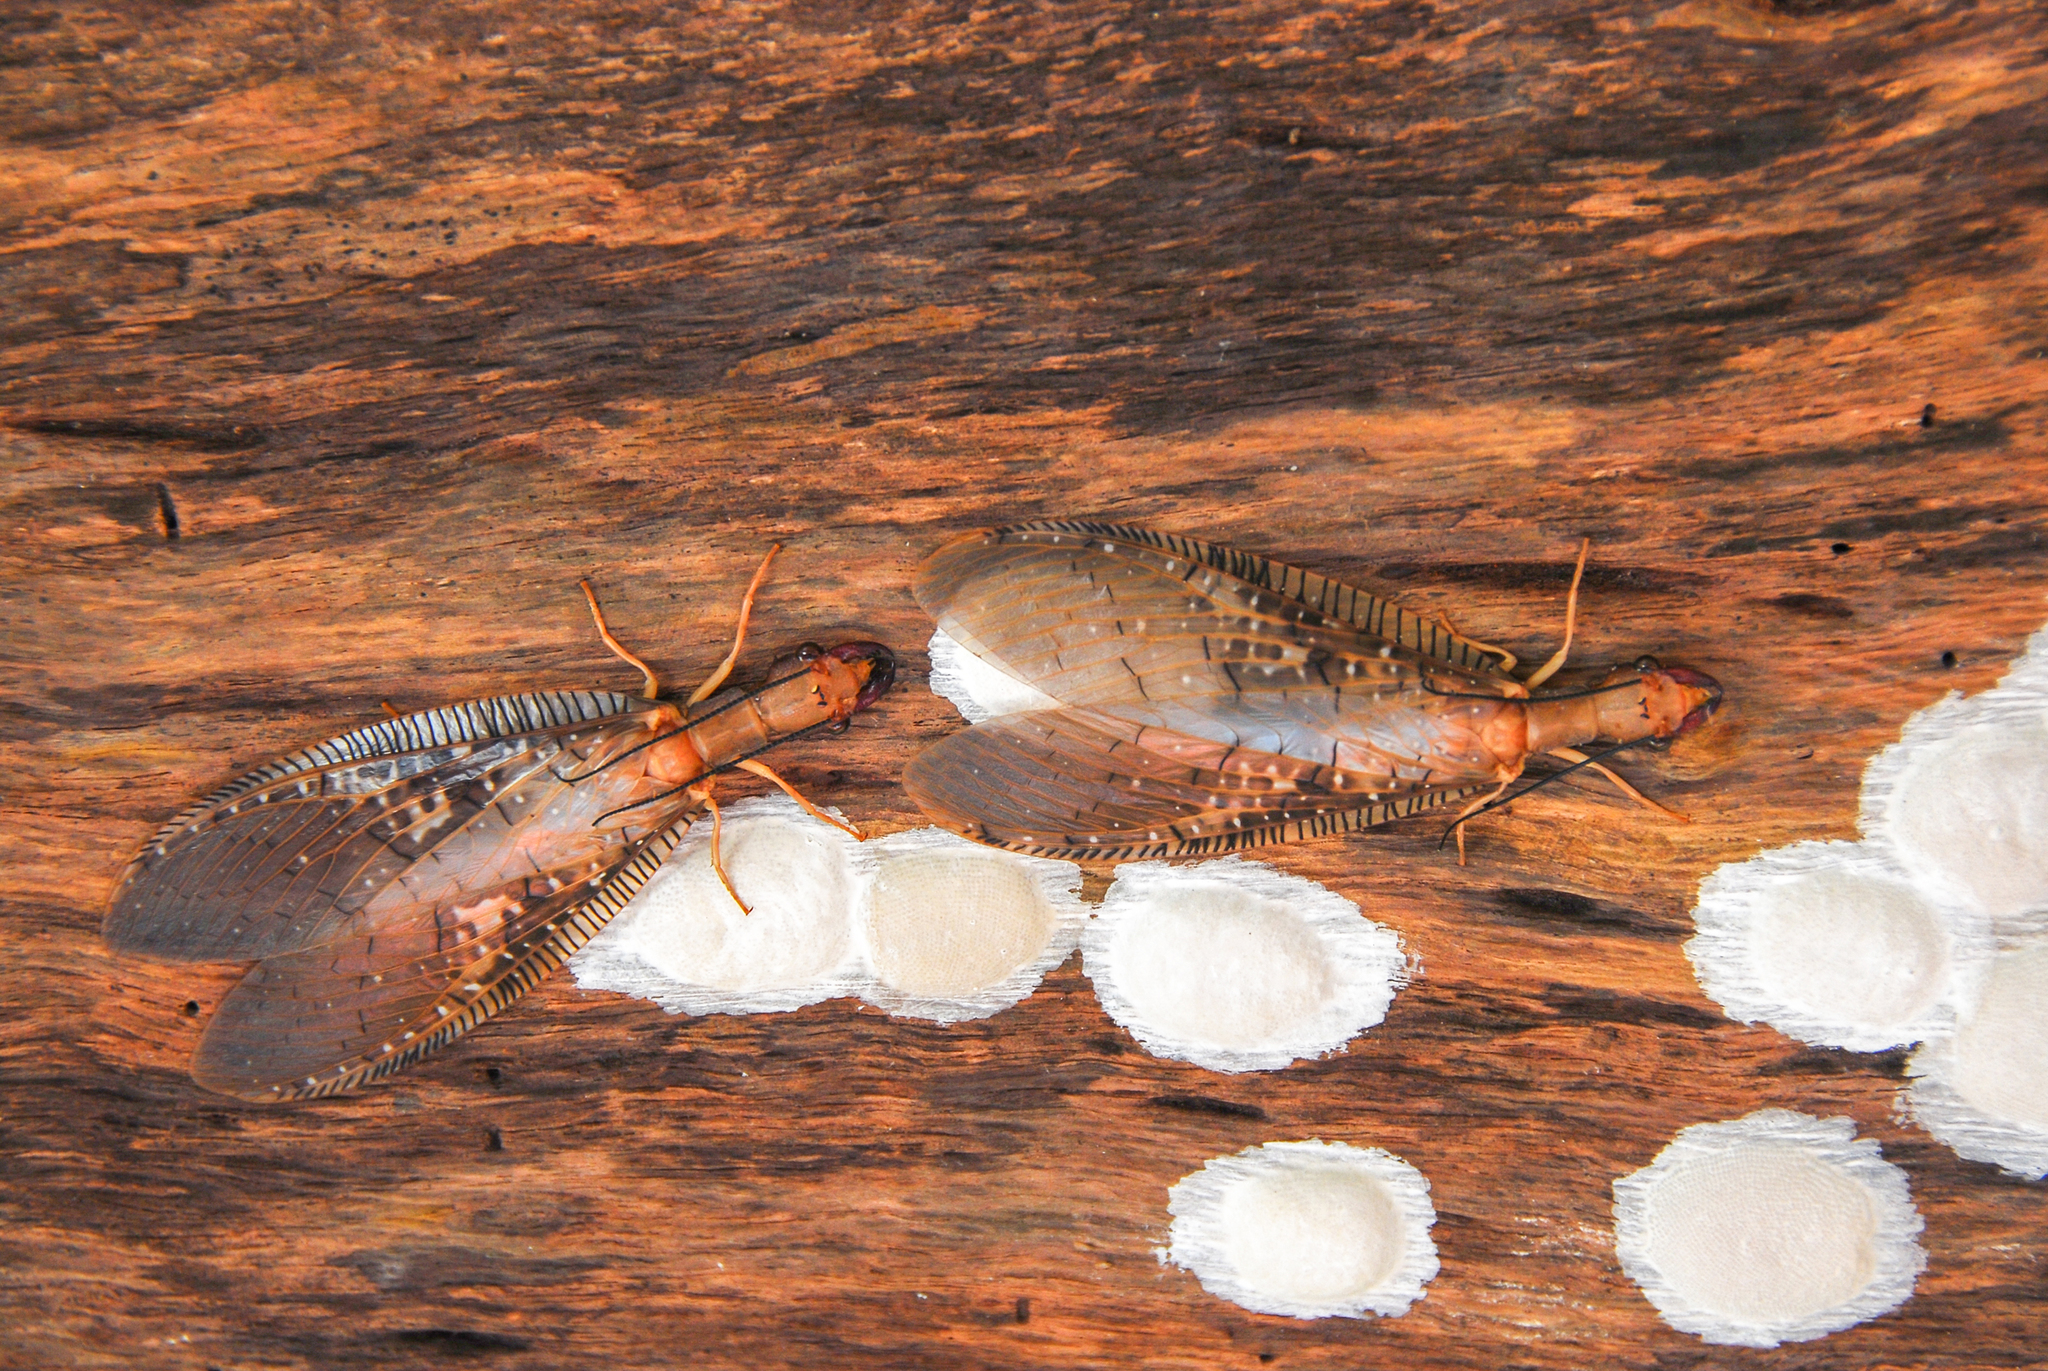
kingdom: Animalia
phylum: Arthropoda
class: Insecta
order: Megaloptera
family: Corydalidae
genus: Corydalus
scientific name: Corydalus affinis
